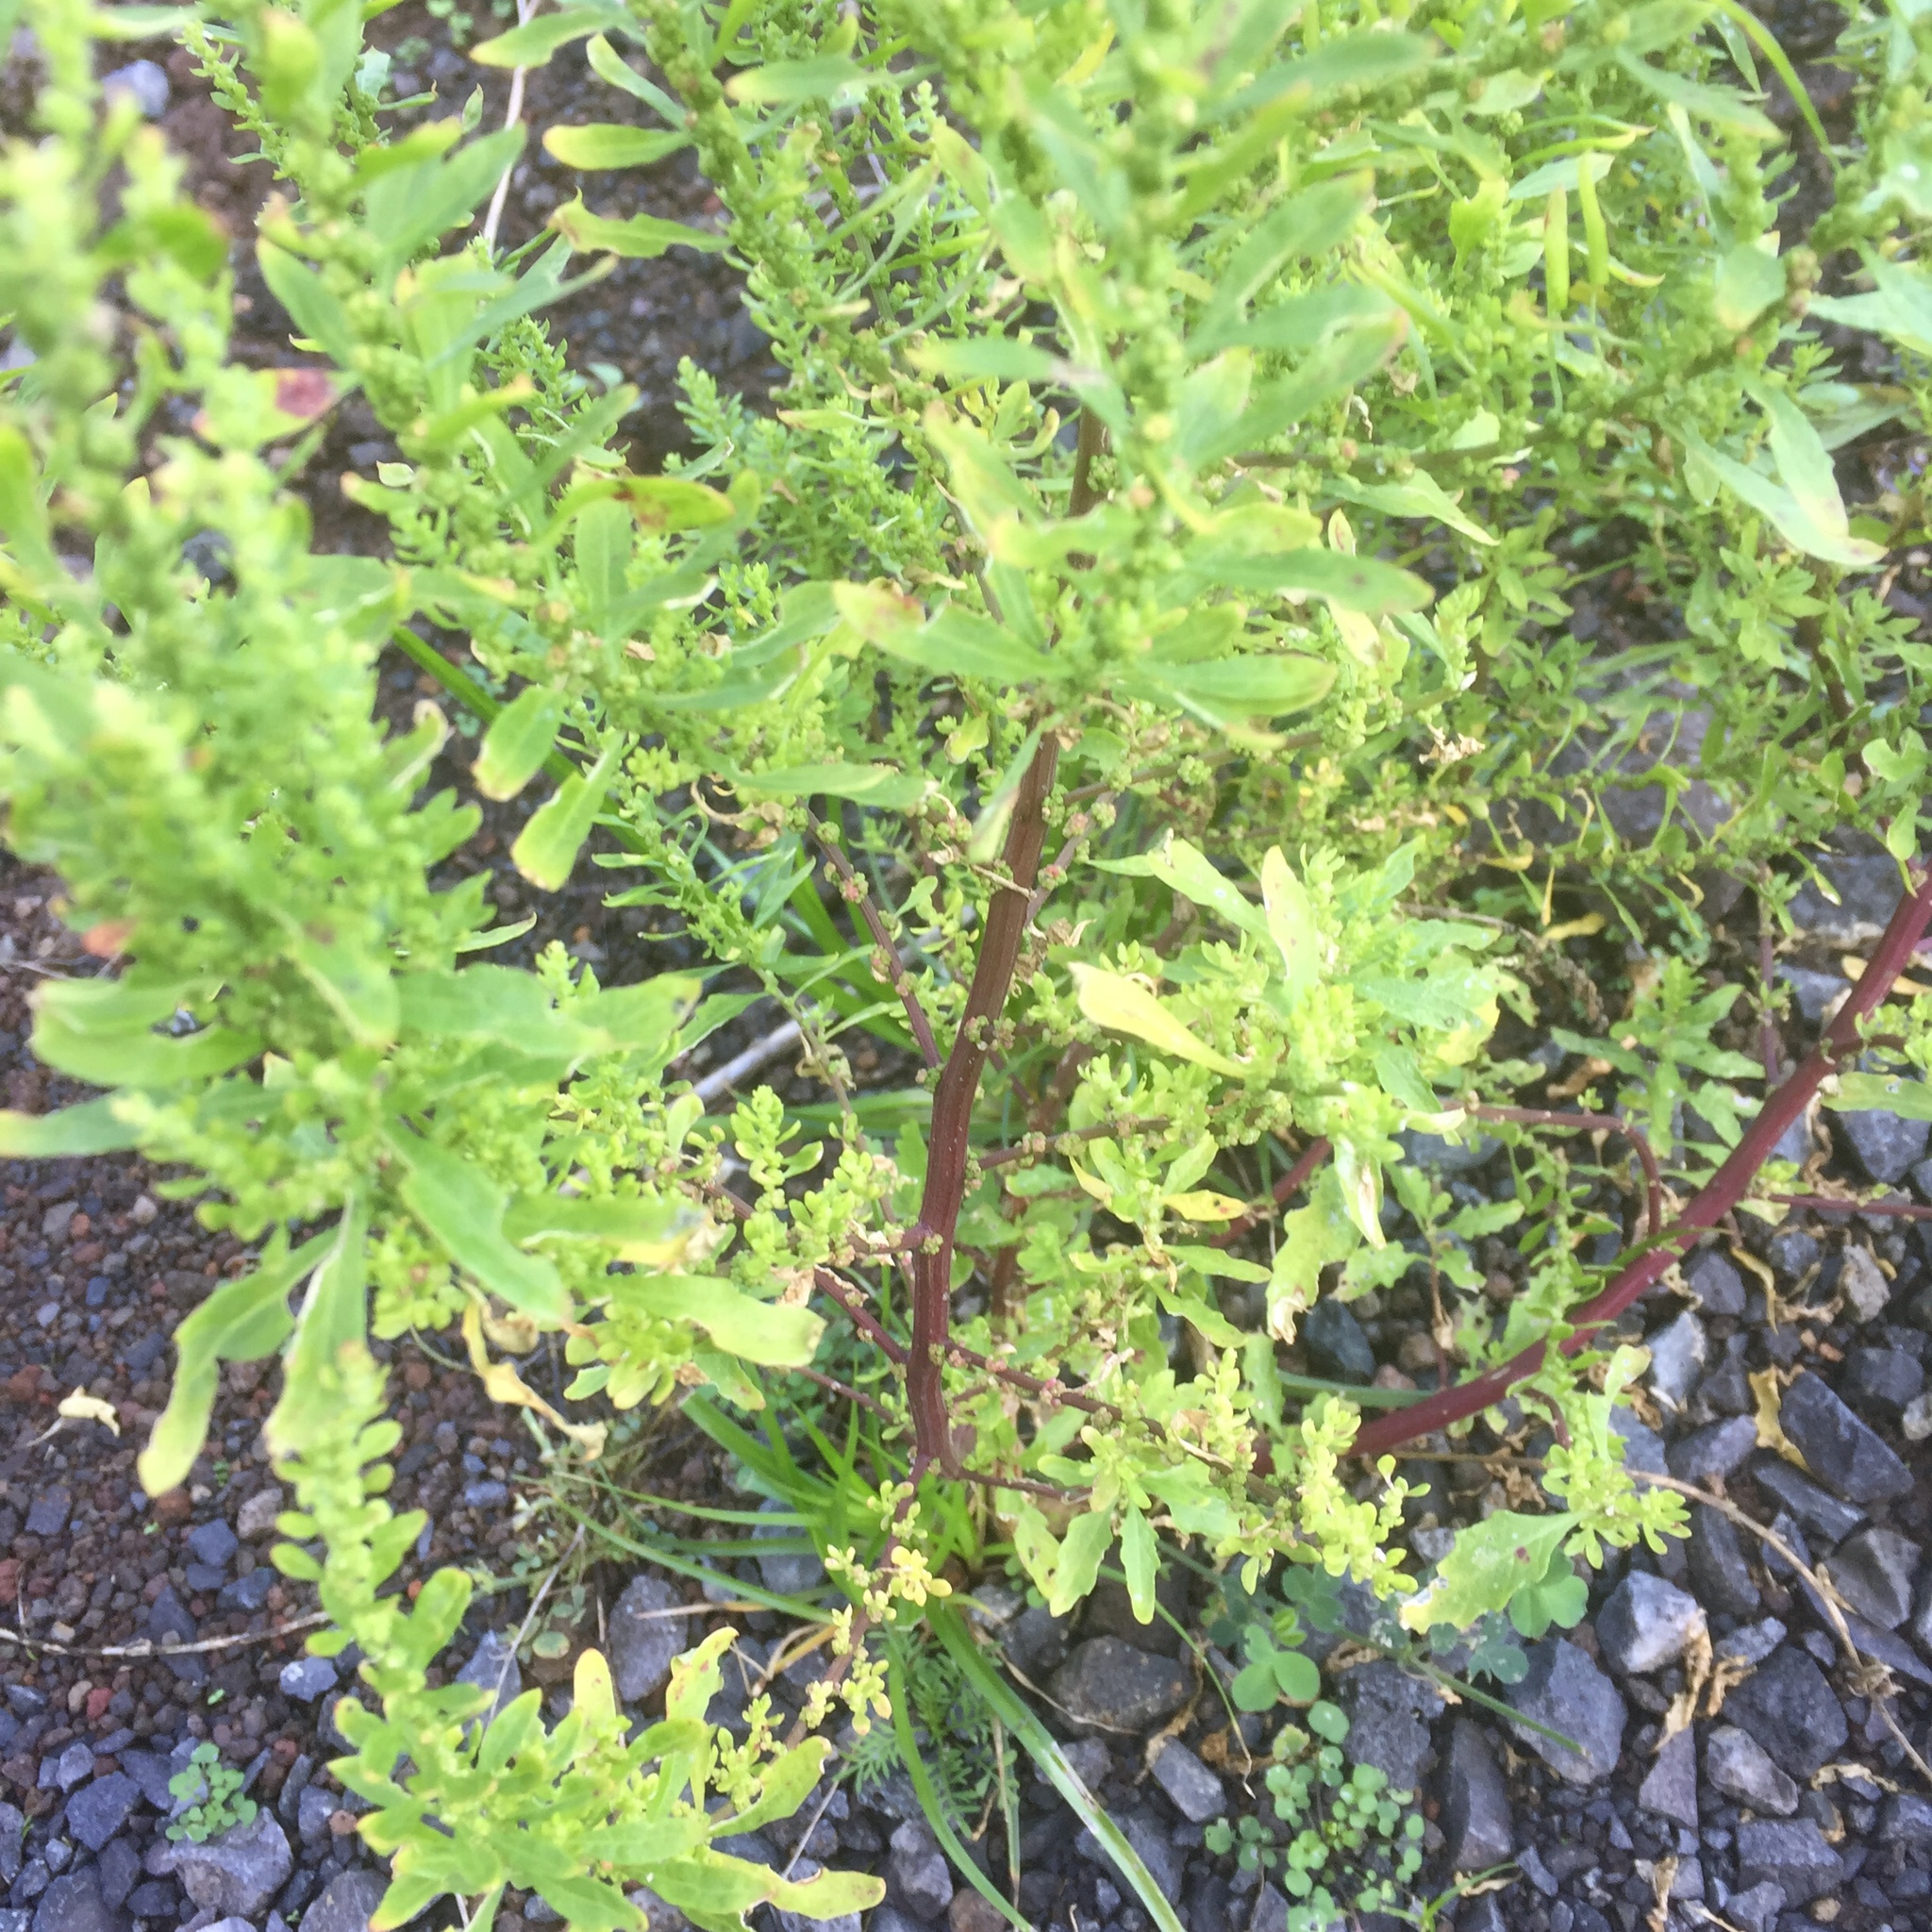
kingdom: Plantae
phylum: Tracheophyta
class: Magnoliopsida
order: Caryophyllales
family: Amaranthaceae
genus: Dysphania
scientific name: Dysphania ambrosioides
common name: Wormseed
